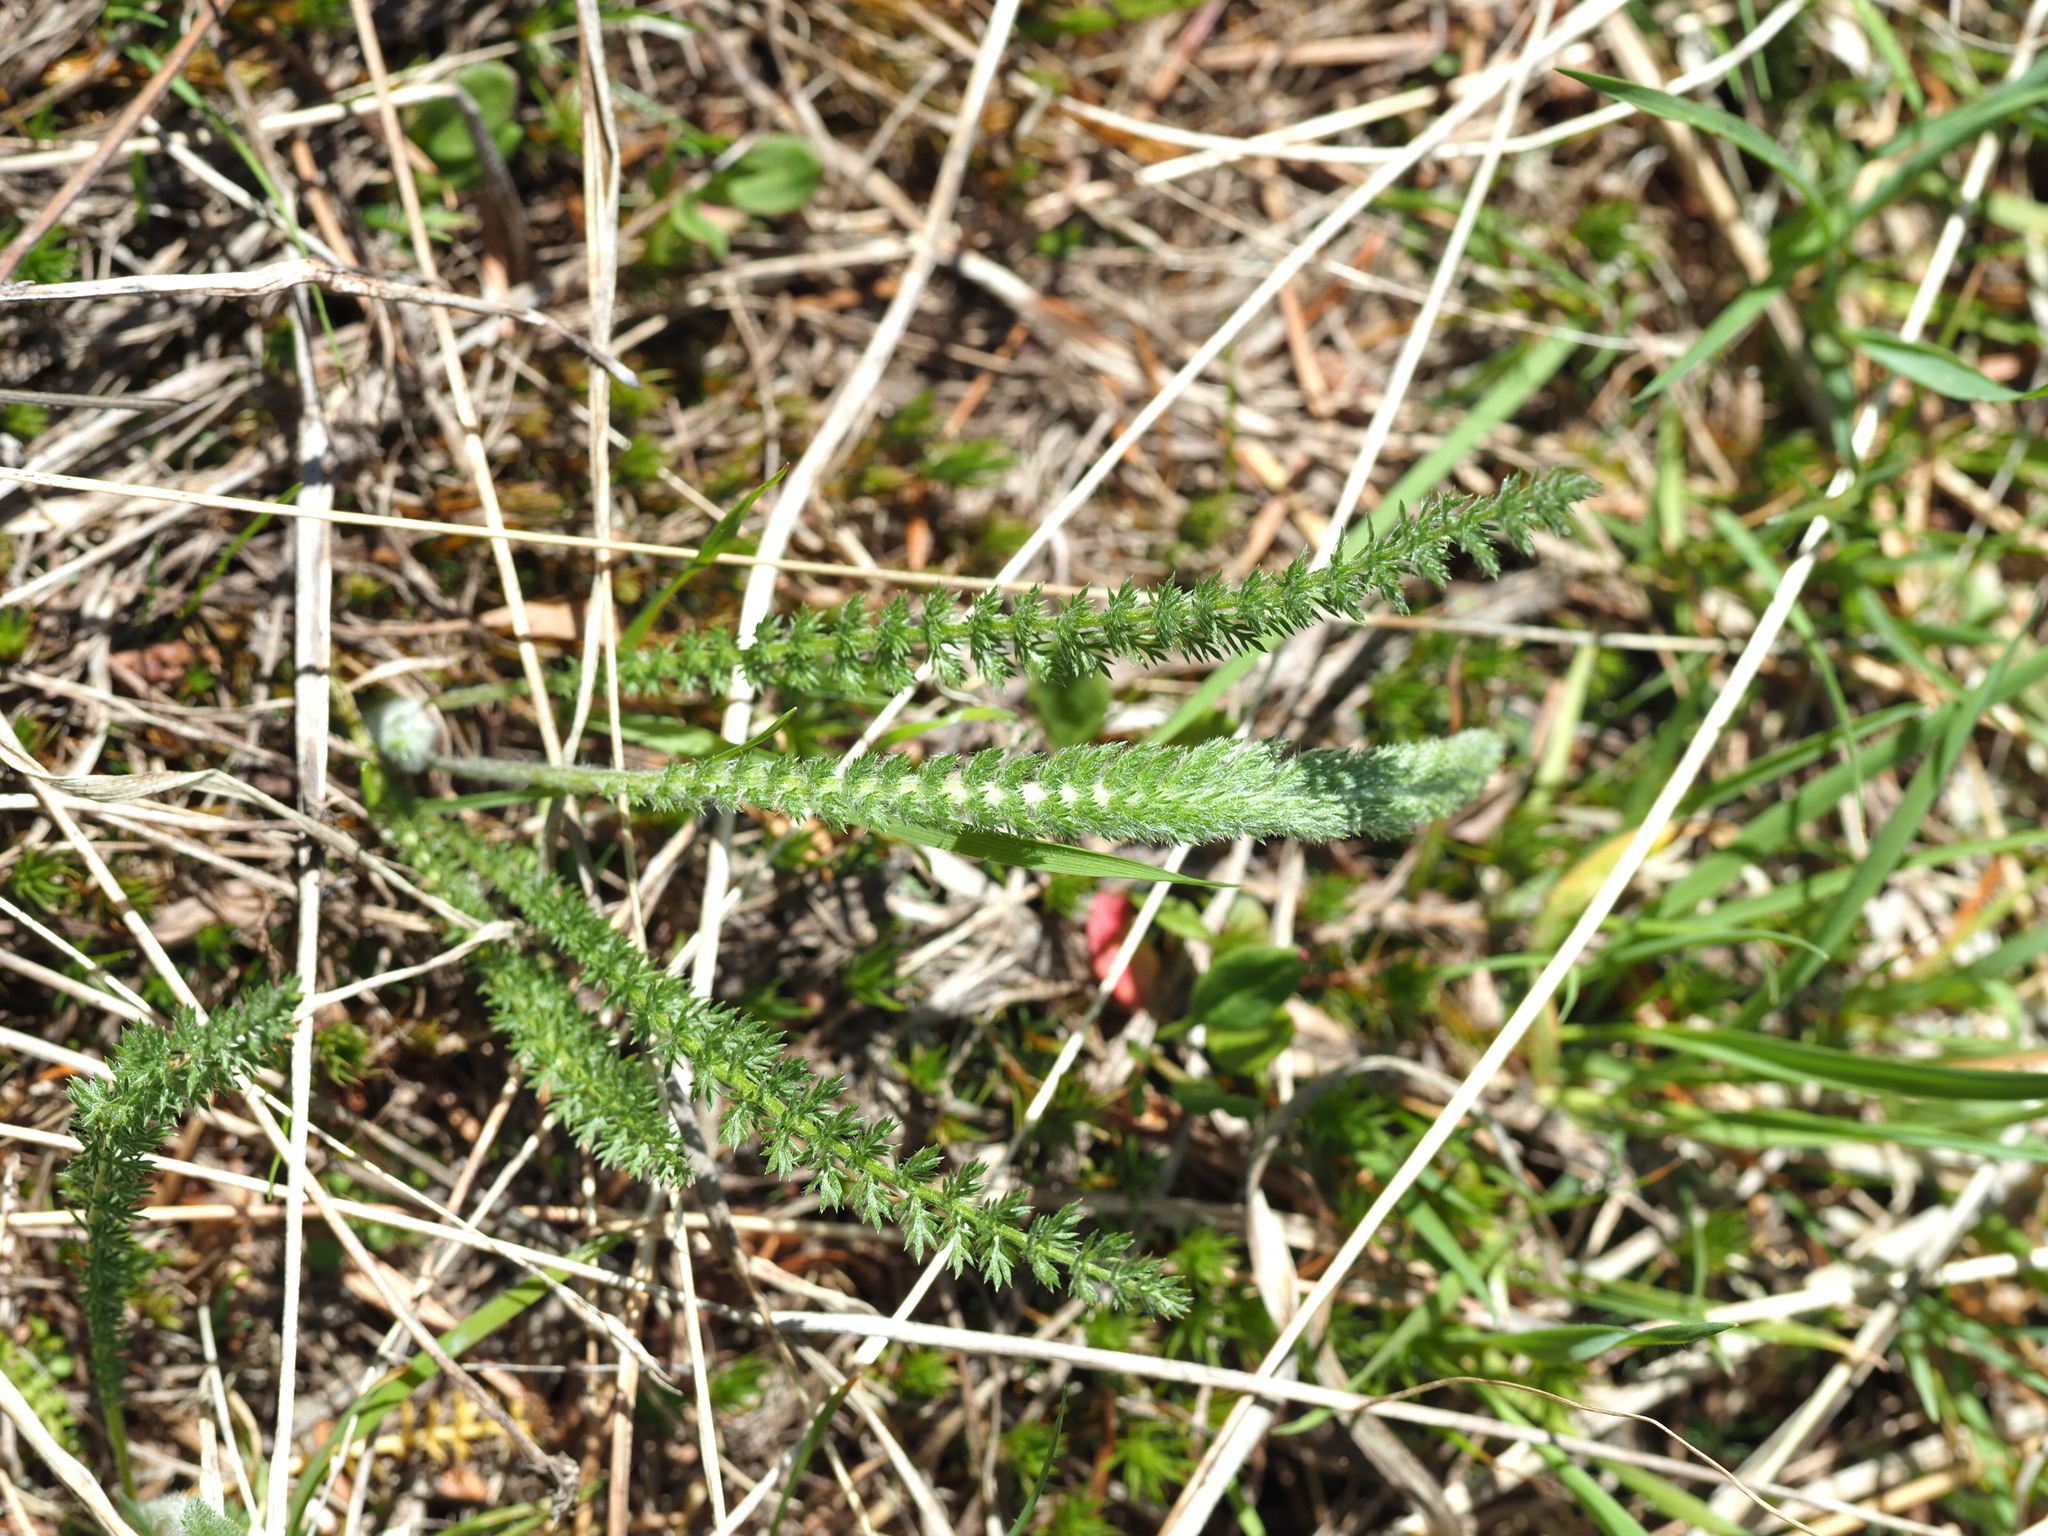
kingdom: Plantae
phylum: Tracheophyta
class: Magnoliopsida
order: Asterales
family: Asteraceae
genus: Achillea
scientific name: Achillea millefolium
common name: Yarrow
